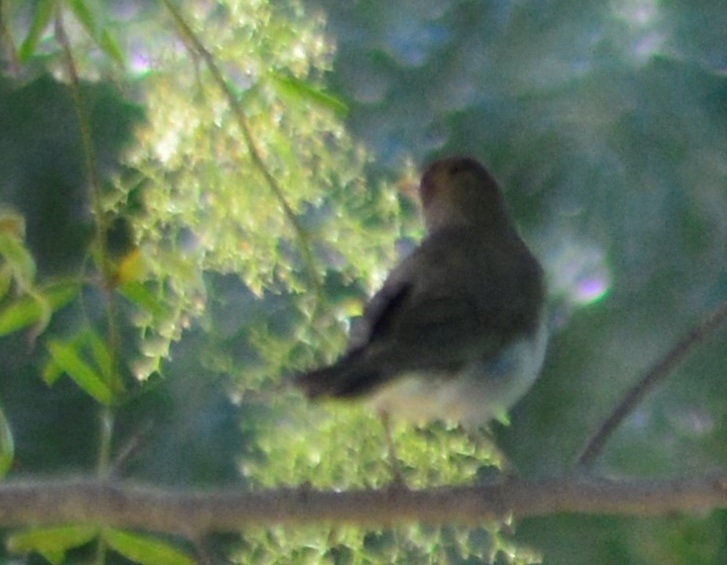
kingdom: Animalia
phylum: Chordata
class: Aves
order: Passeriformes
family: Turdidae
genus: Turdus
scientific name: Turdus amaurochalinus
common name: Creamy-bellied thrush
